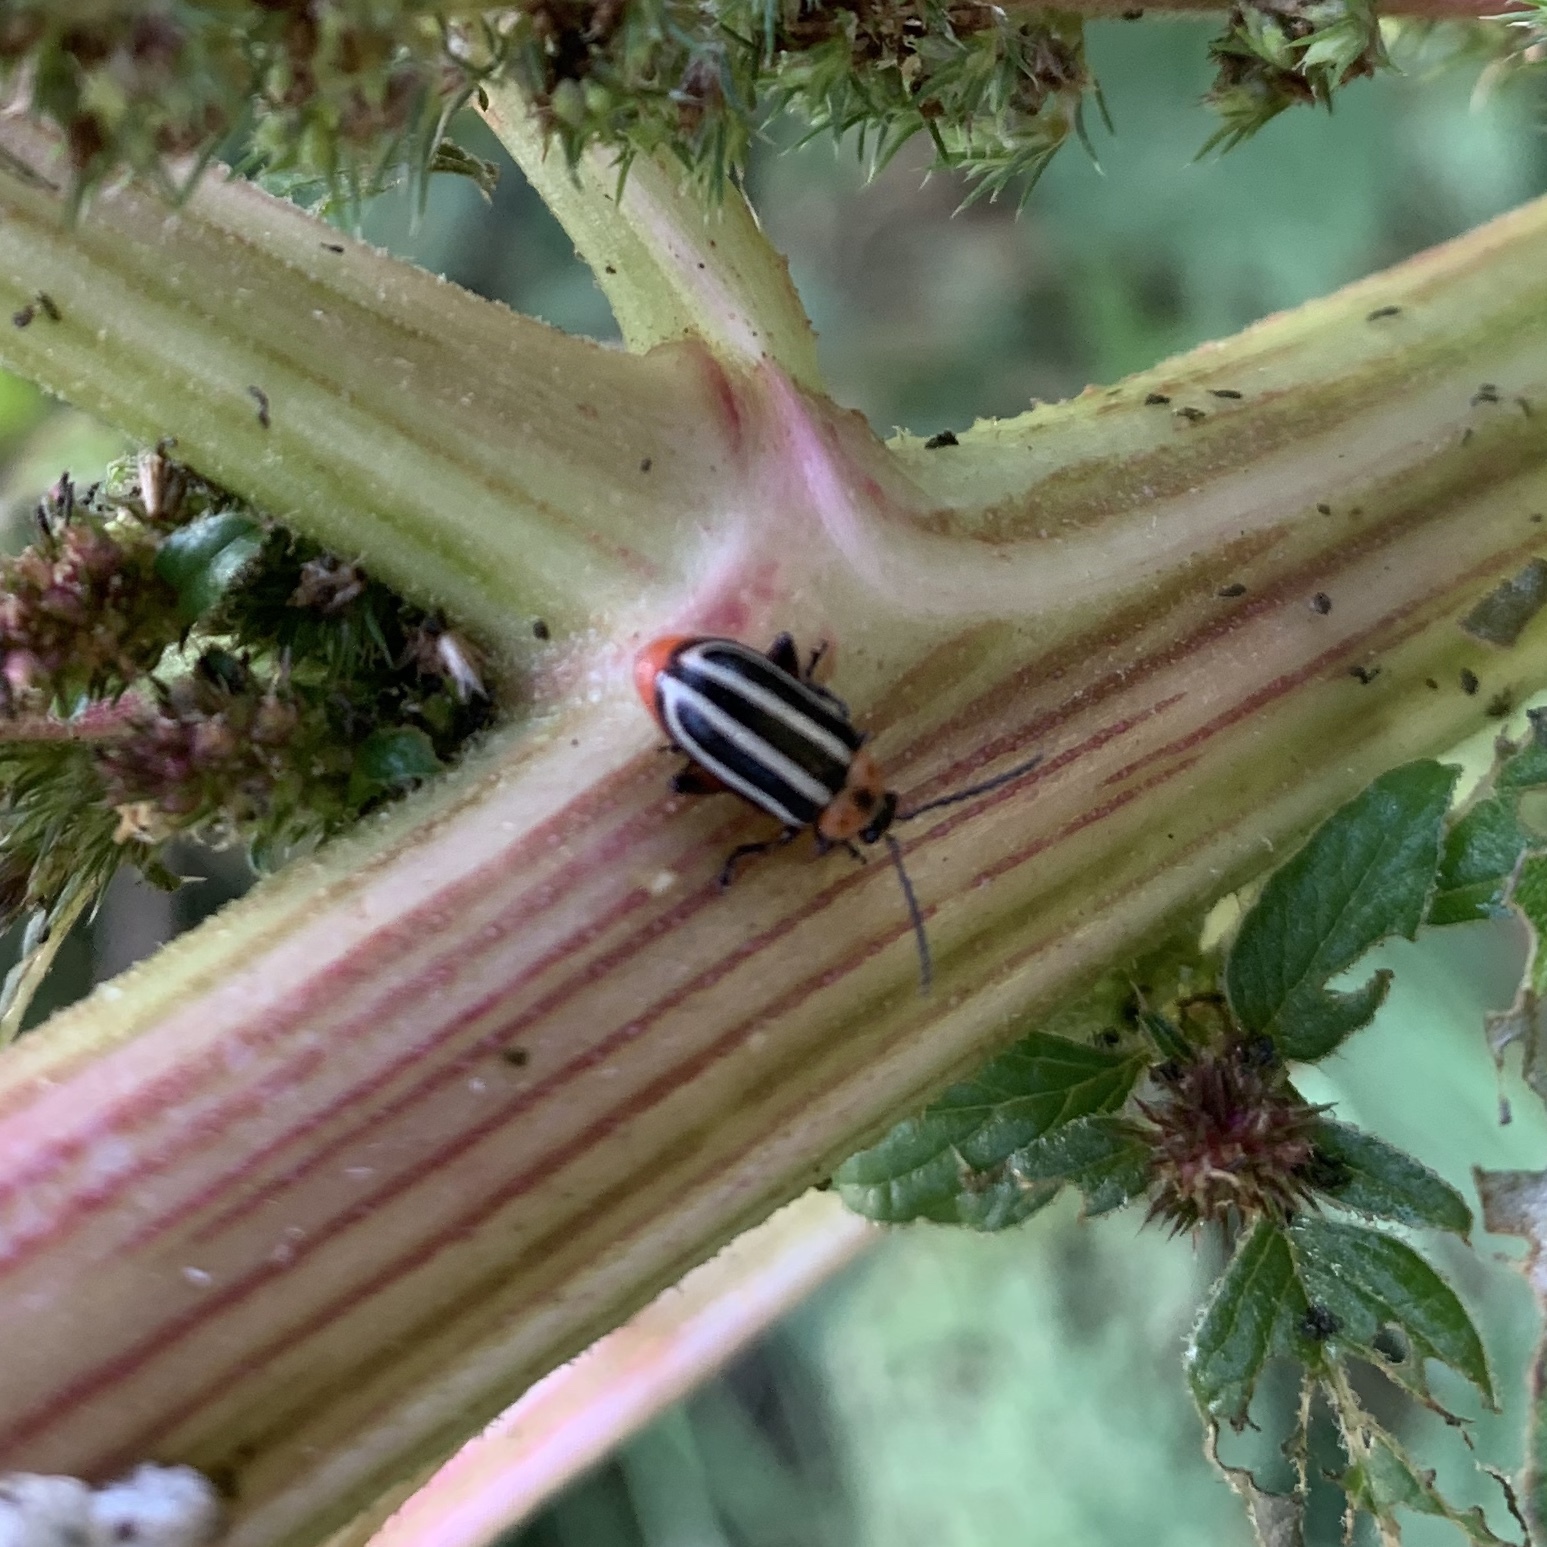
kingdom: Animalia
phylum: Arthropoda
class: Insecta
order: Coleoptera
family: Chrysomelidae
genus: Disonycha
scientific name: Disonycha glabrata
